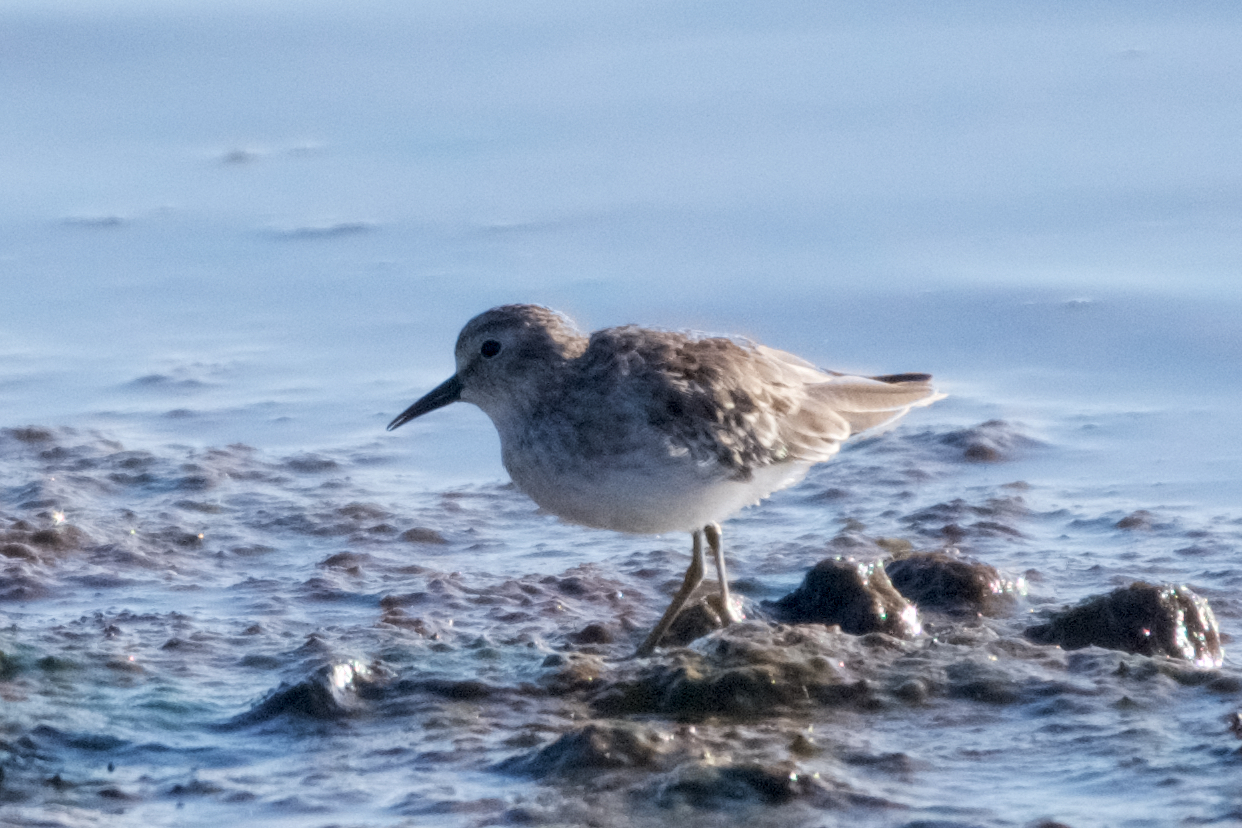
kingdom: Animalia
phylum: Chordata
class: Aves
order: Charadriiformes
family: Scolopacidae
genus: Calidris
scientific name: Calidris minutilla
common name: Least sandpiper
